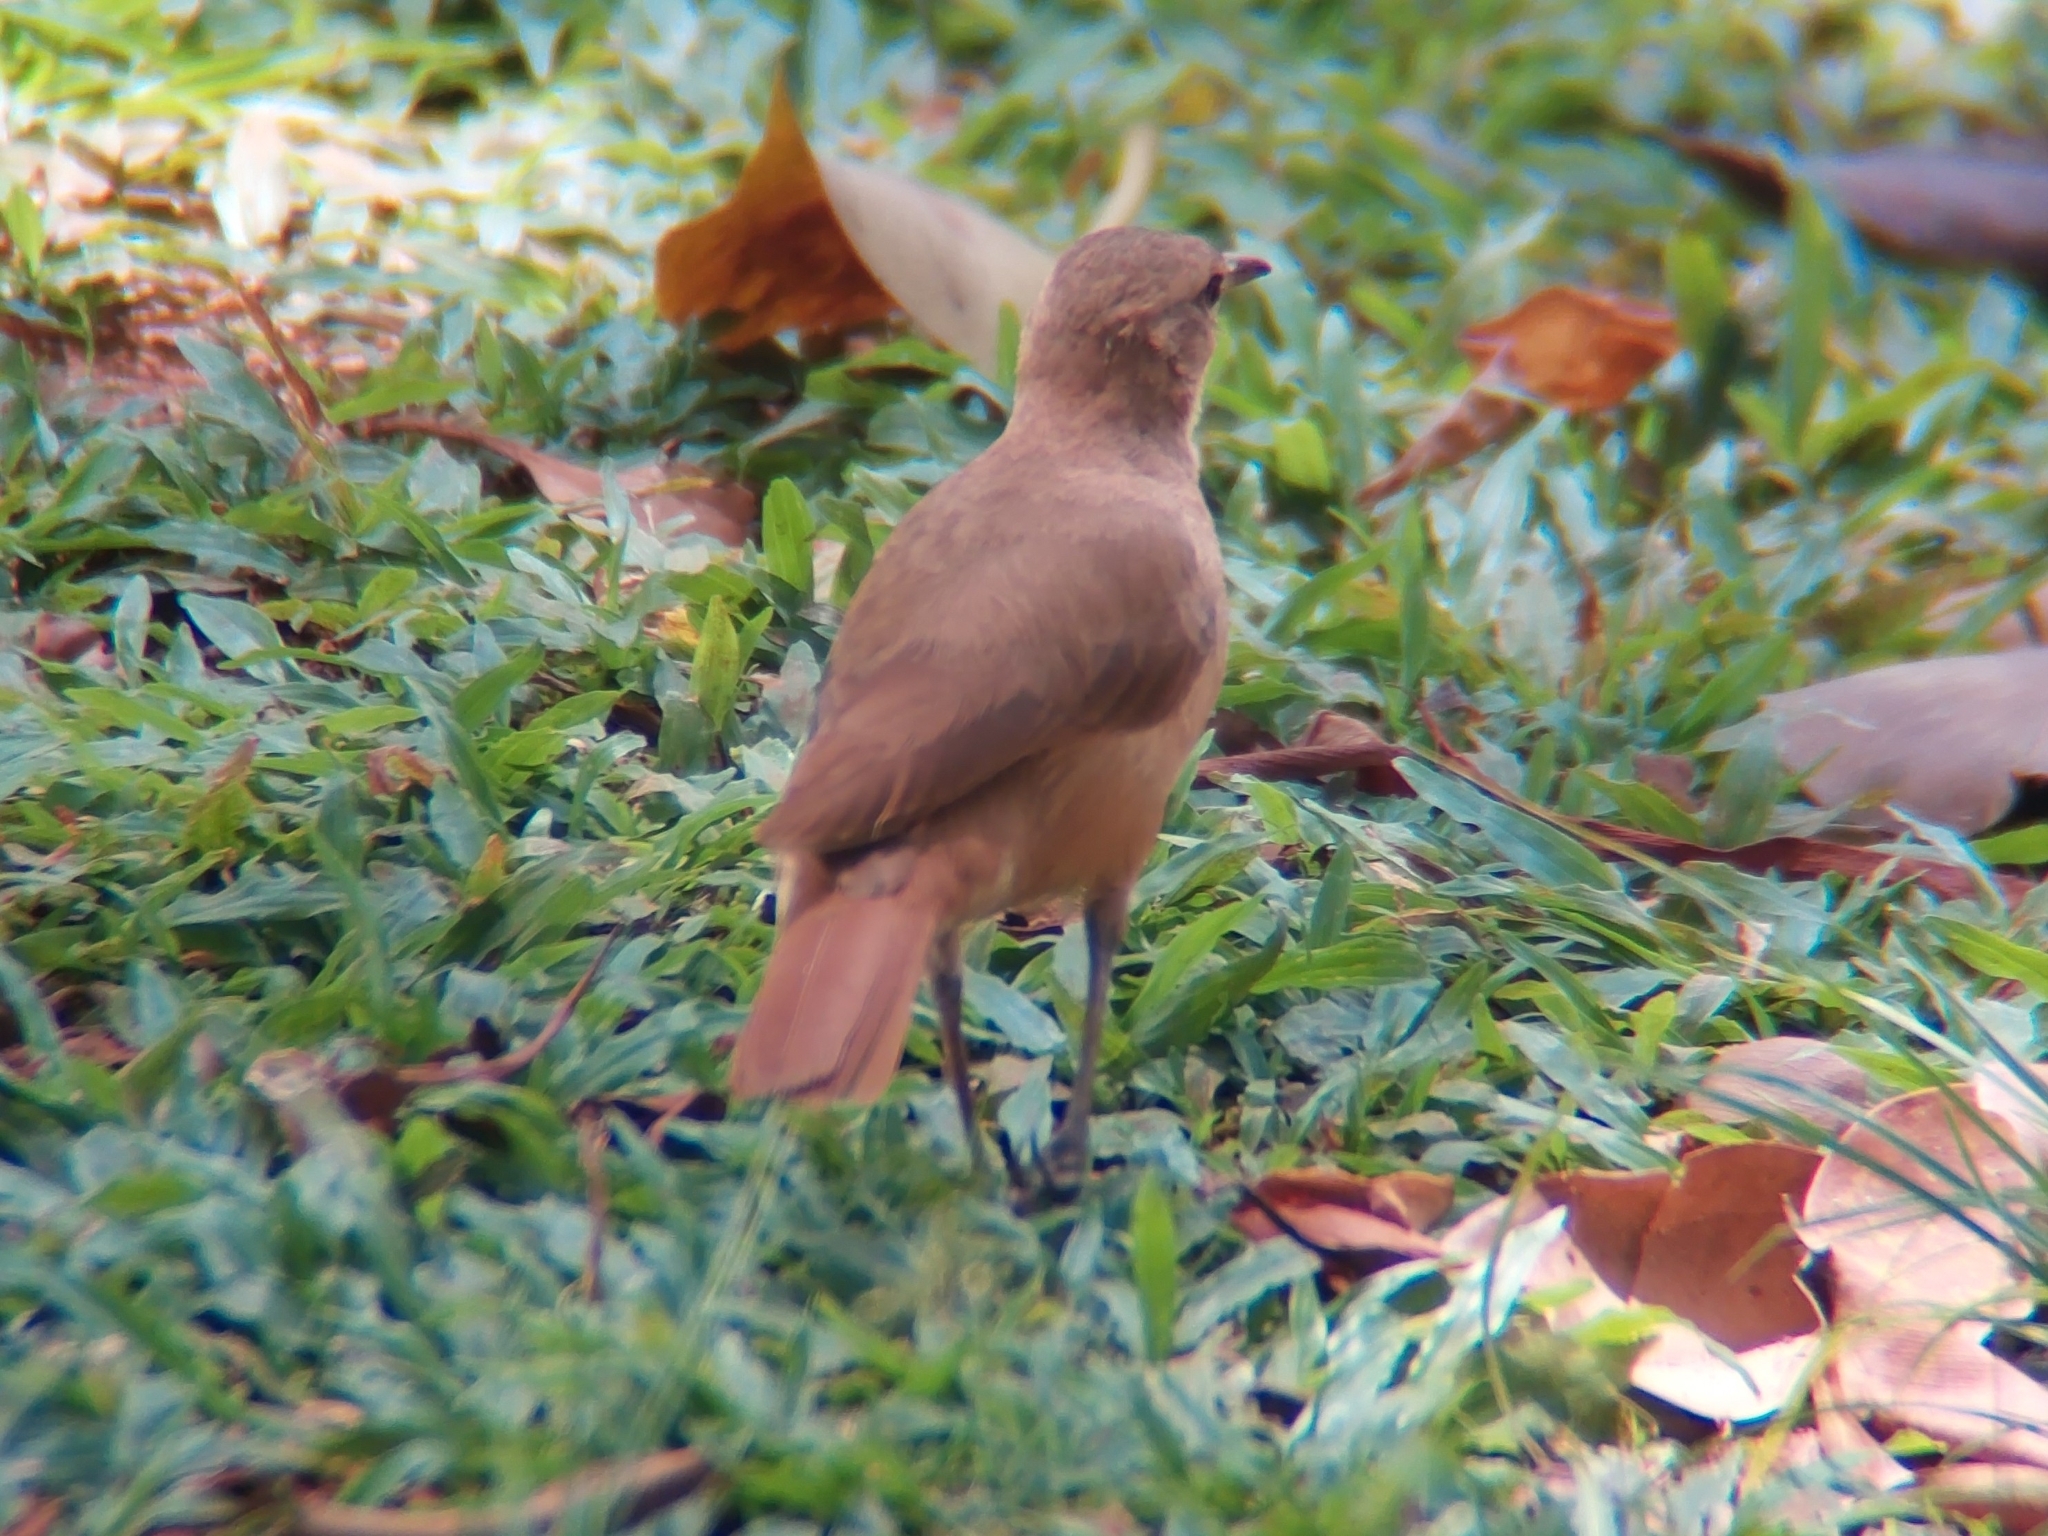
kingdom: Animalia
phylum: Chordata
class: Aves
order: Passeriformes
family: Furnariidae
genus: Furnarius
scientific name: Furnarius rufus
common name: Rufous hornero
